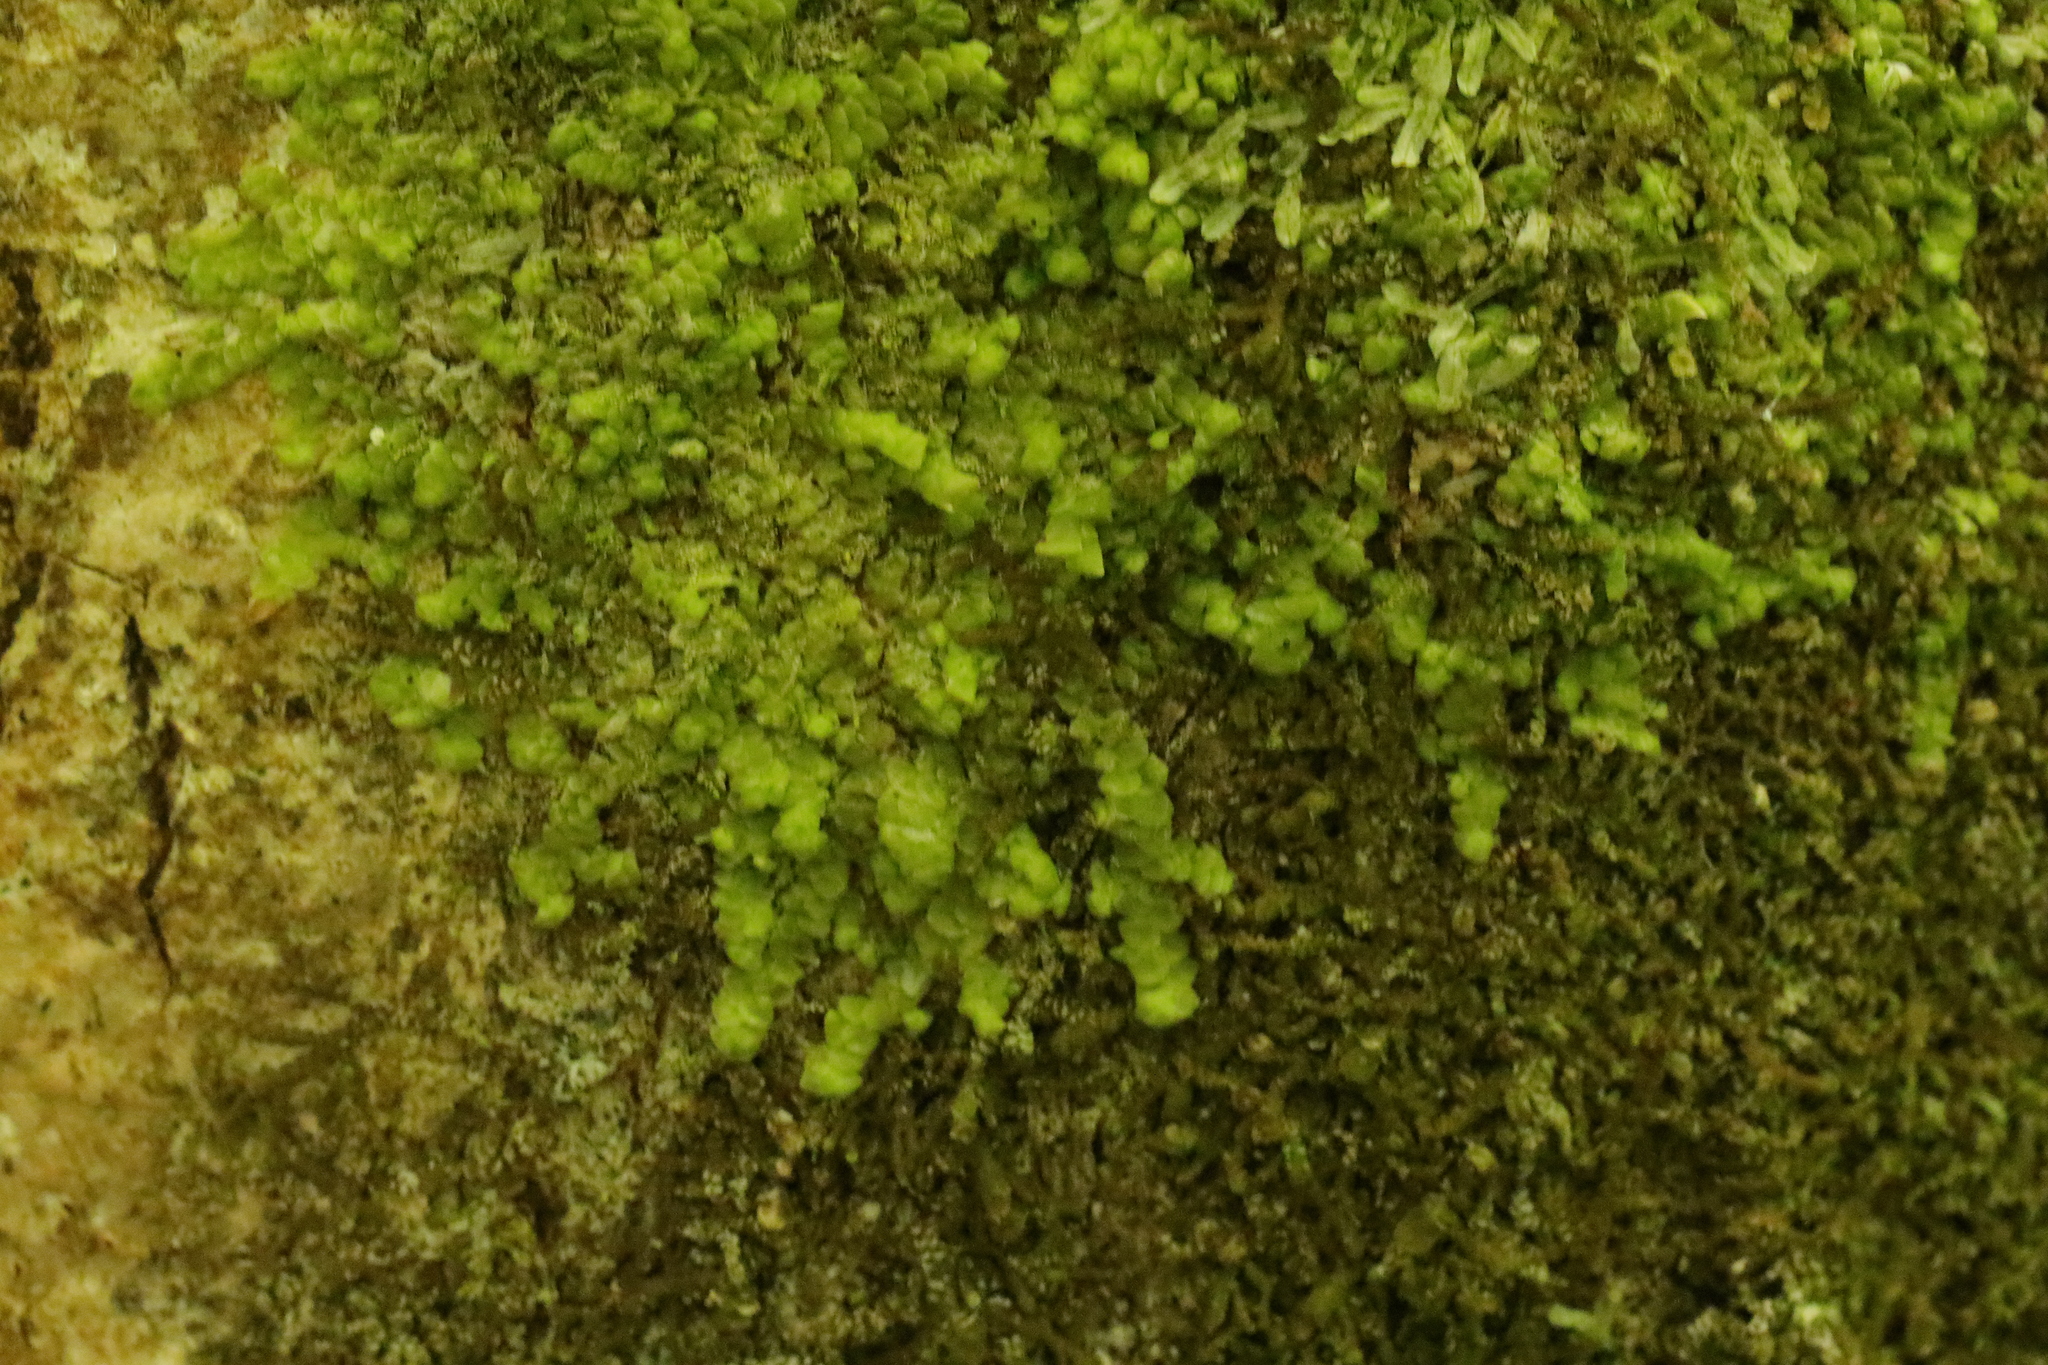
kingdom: Plantae
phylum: Marchantiophyta
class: Jungermanniopsida
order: Porellales
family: Radulaceae
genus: Radula
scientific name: Radula complanata
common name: Flat-leaved scalewort
